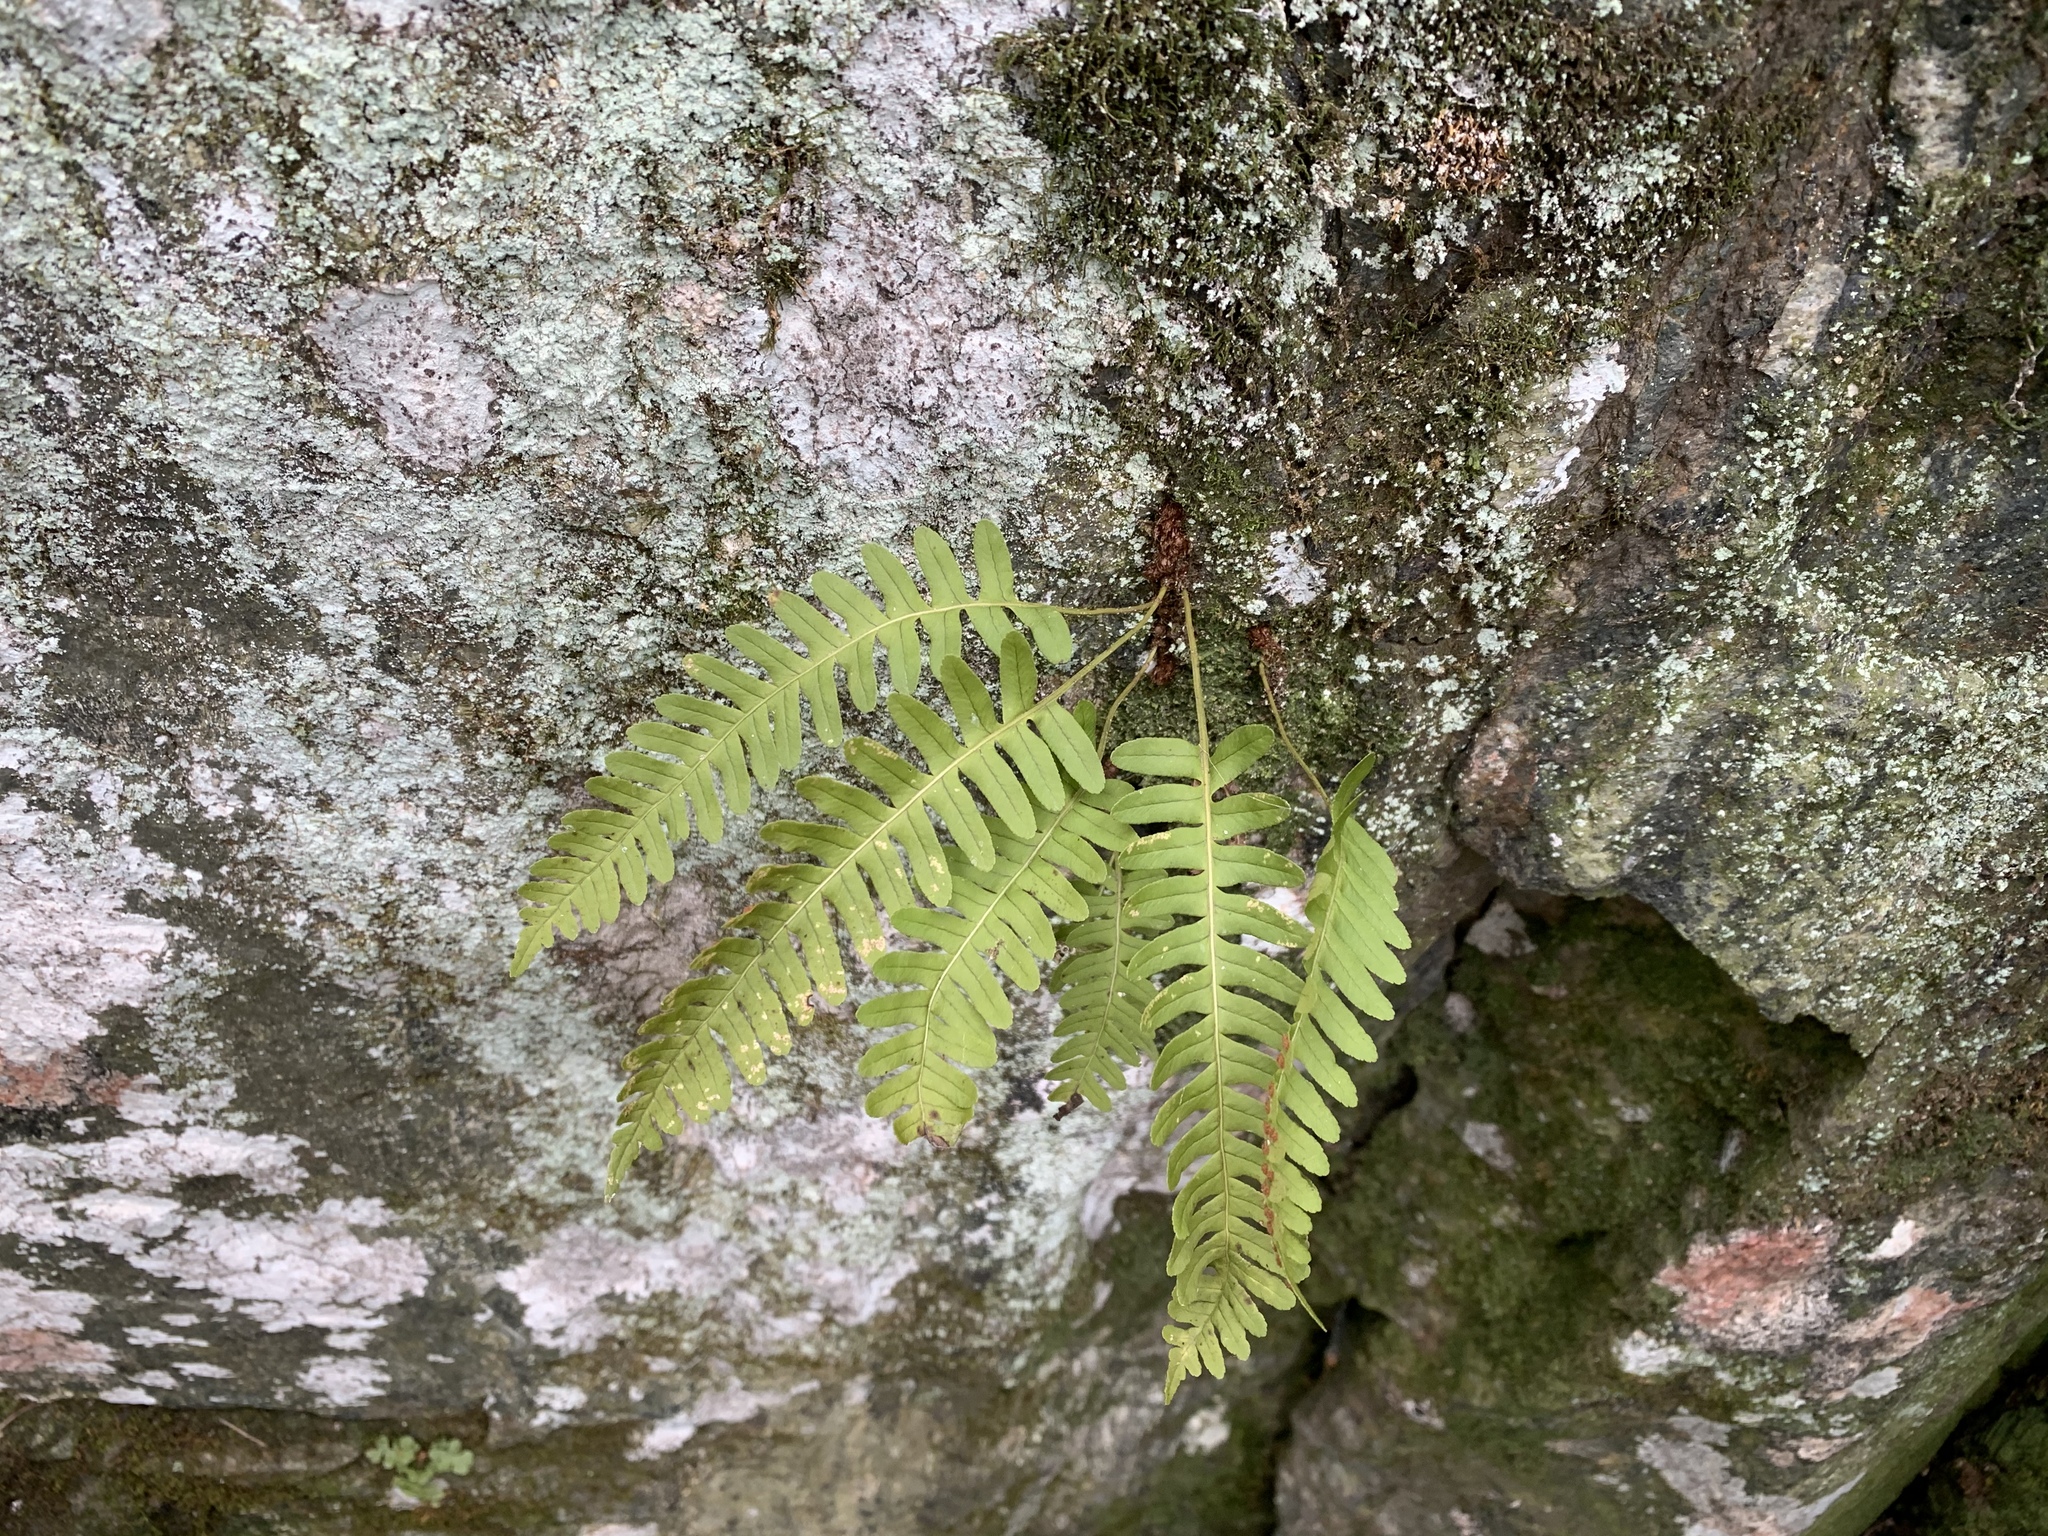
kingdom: Plantae
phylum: Tracheophyta
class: Polypodiopsida
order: Polypodiales
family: Polypodiaceae
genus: Polypodium
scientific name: Polypodium virginianum
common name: American wall fern
